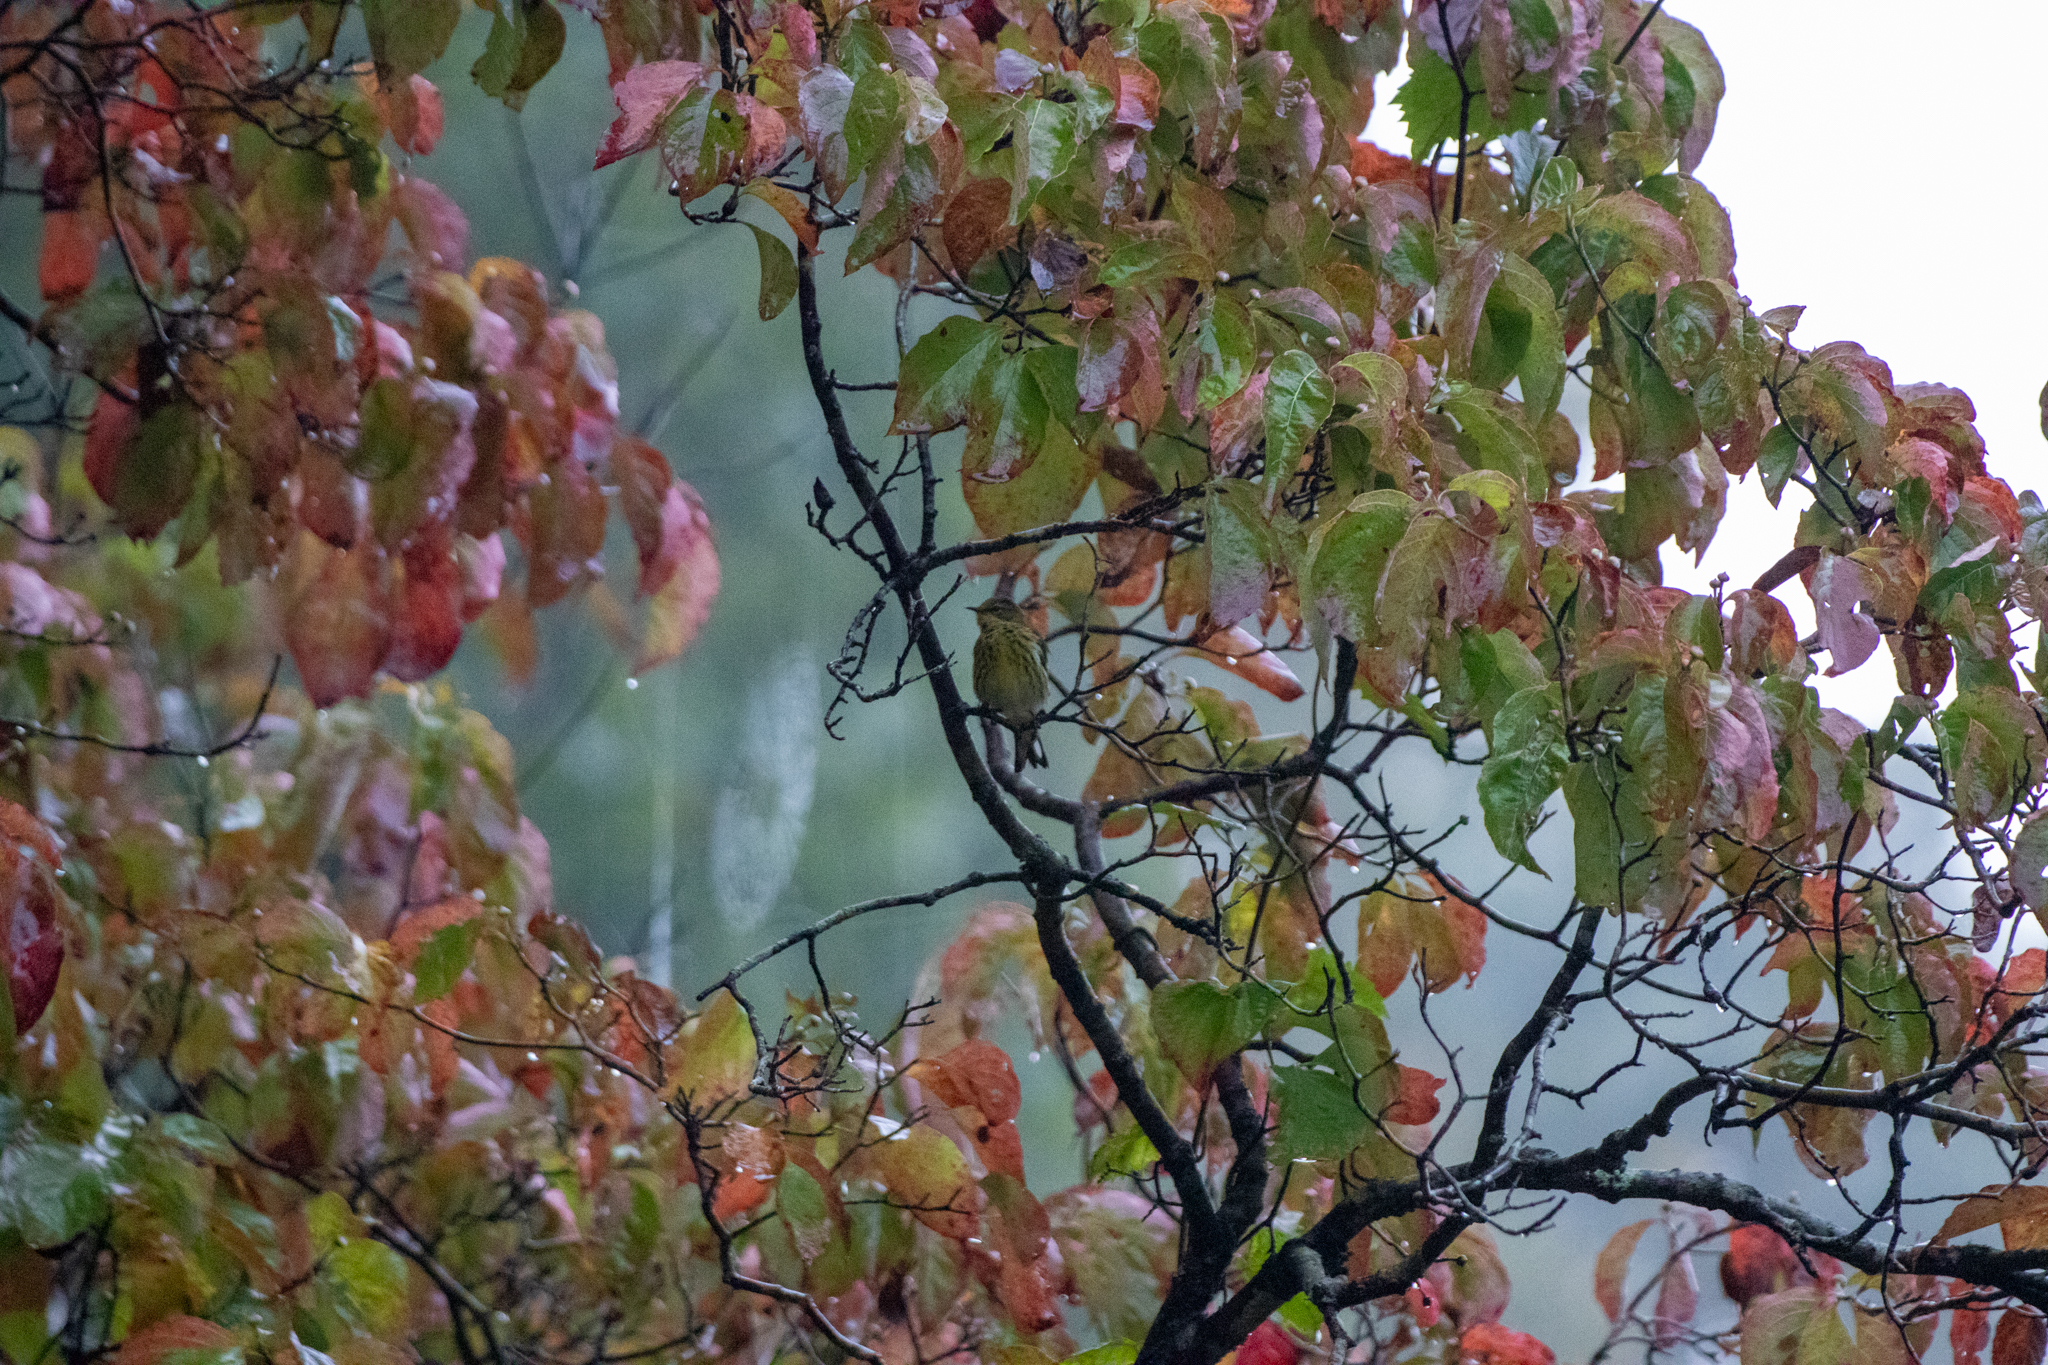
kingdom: Animalia
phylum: Chordata
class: Aves
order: Passeriformes
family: Parulidae
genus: Setophaga
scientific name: Setophaga tigrina
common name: Cape may warbler
